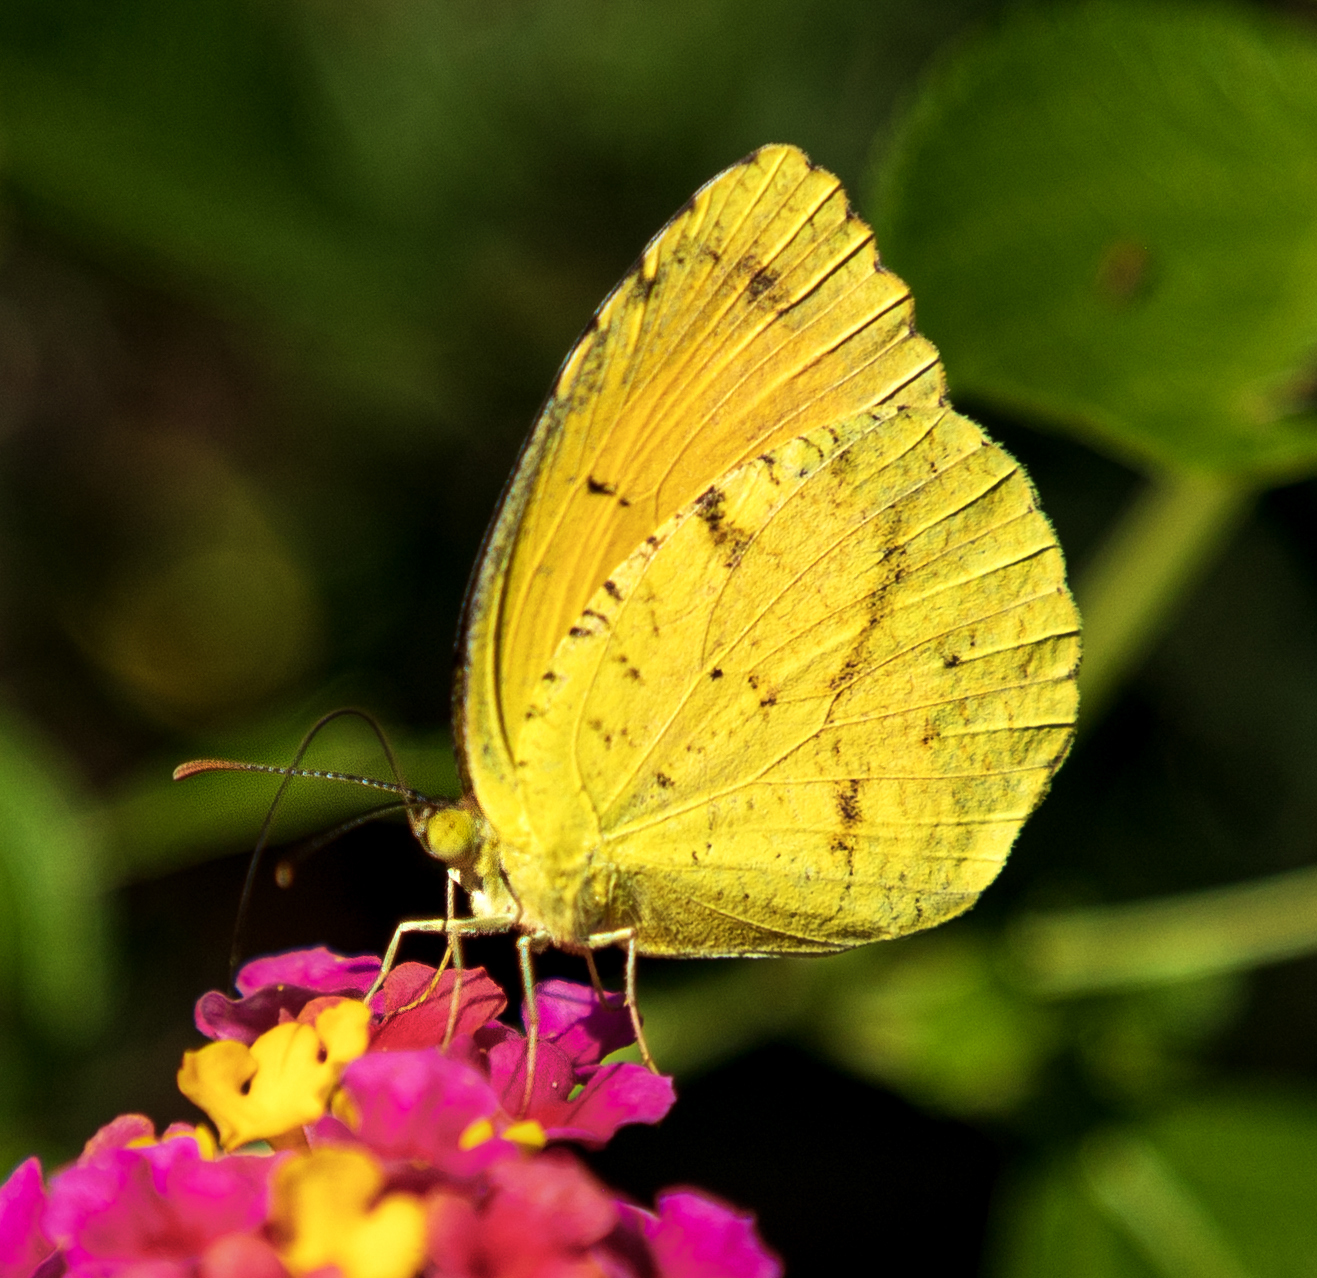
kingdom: Animalia
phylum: Arthropoda
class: Insecta
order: Lepidoptera
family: Pieridae
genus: Abaeis
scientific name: Abaeis nicippe
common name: Sleepy orange
